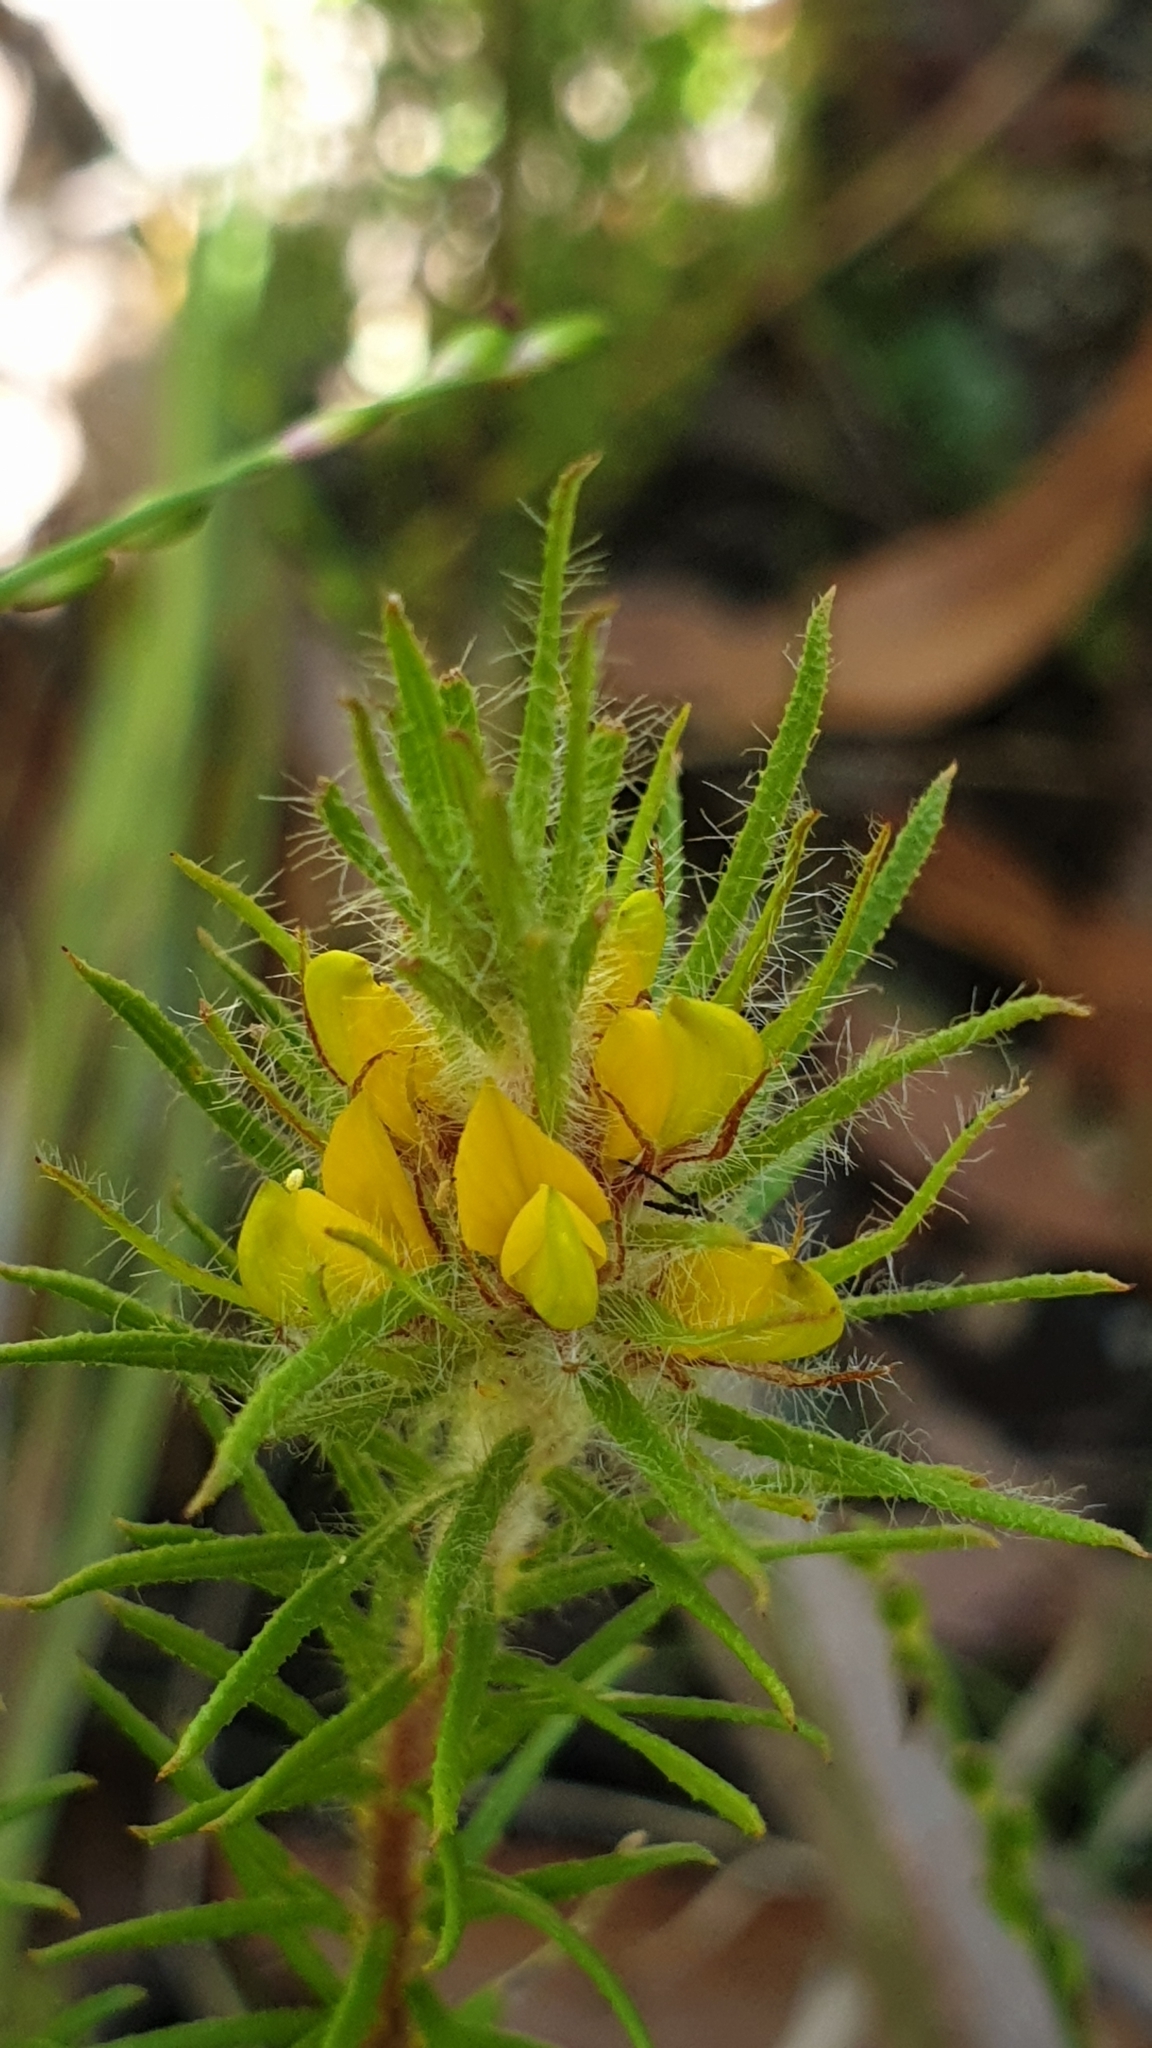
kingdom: Plantae
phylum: Tracheophyta
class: Magnoliopsida
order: Fabales
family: Fabaceae
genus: Phyllota
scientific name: Phyllota phylicoides
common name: Heath phyllota
